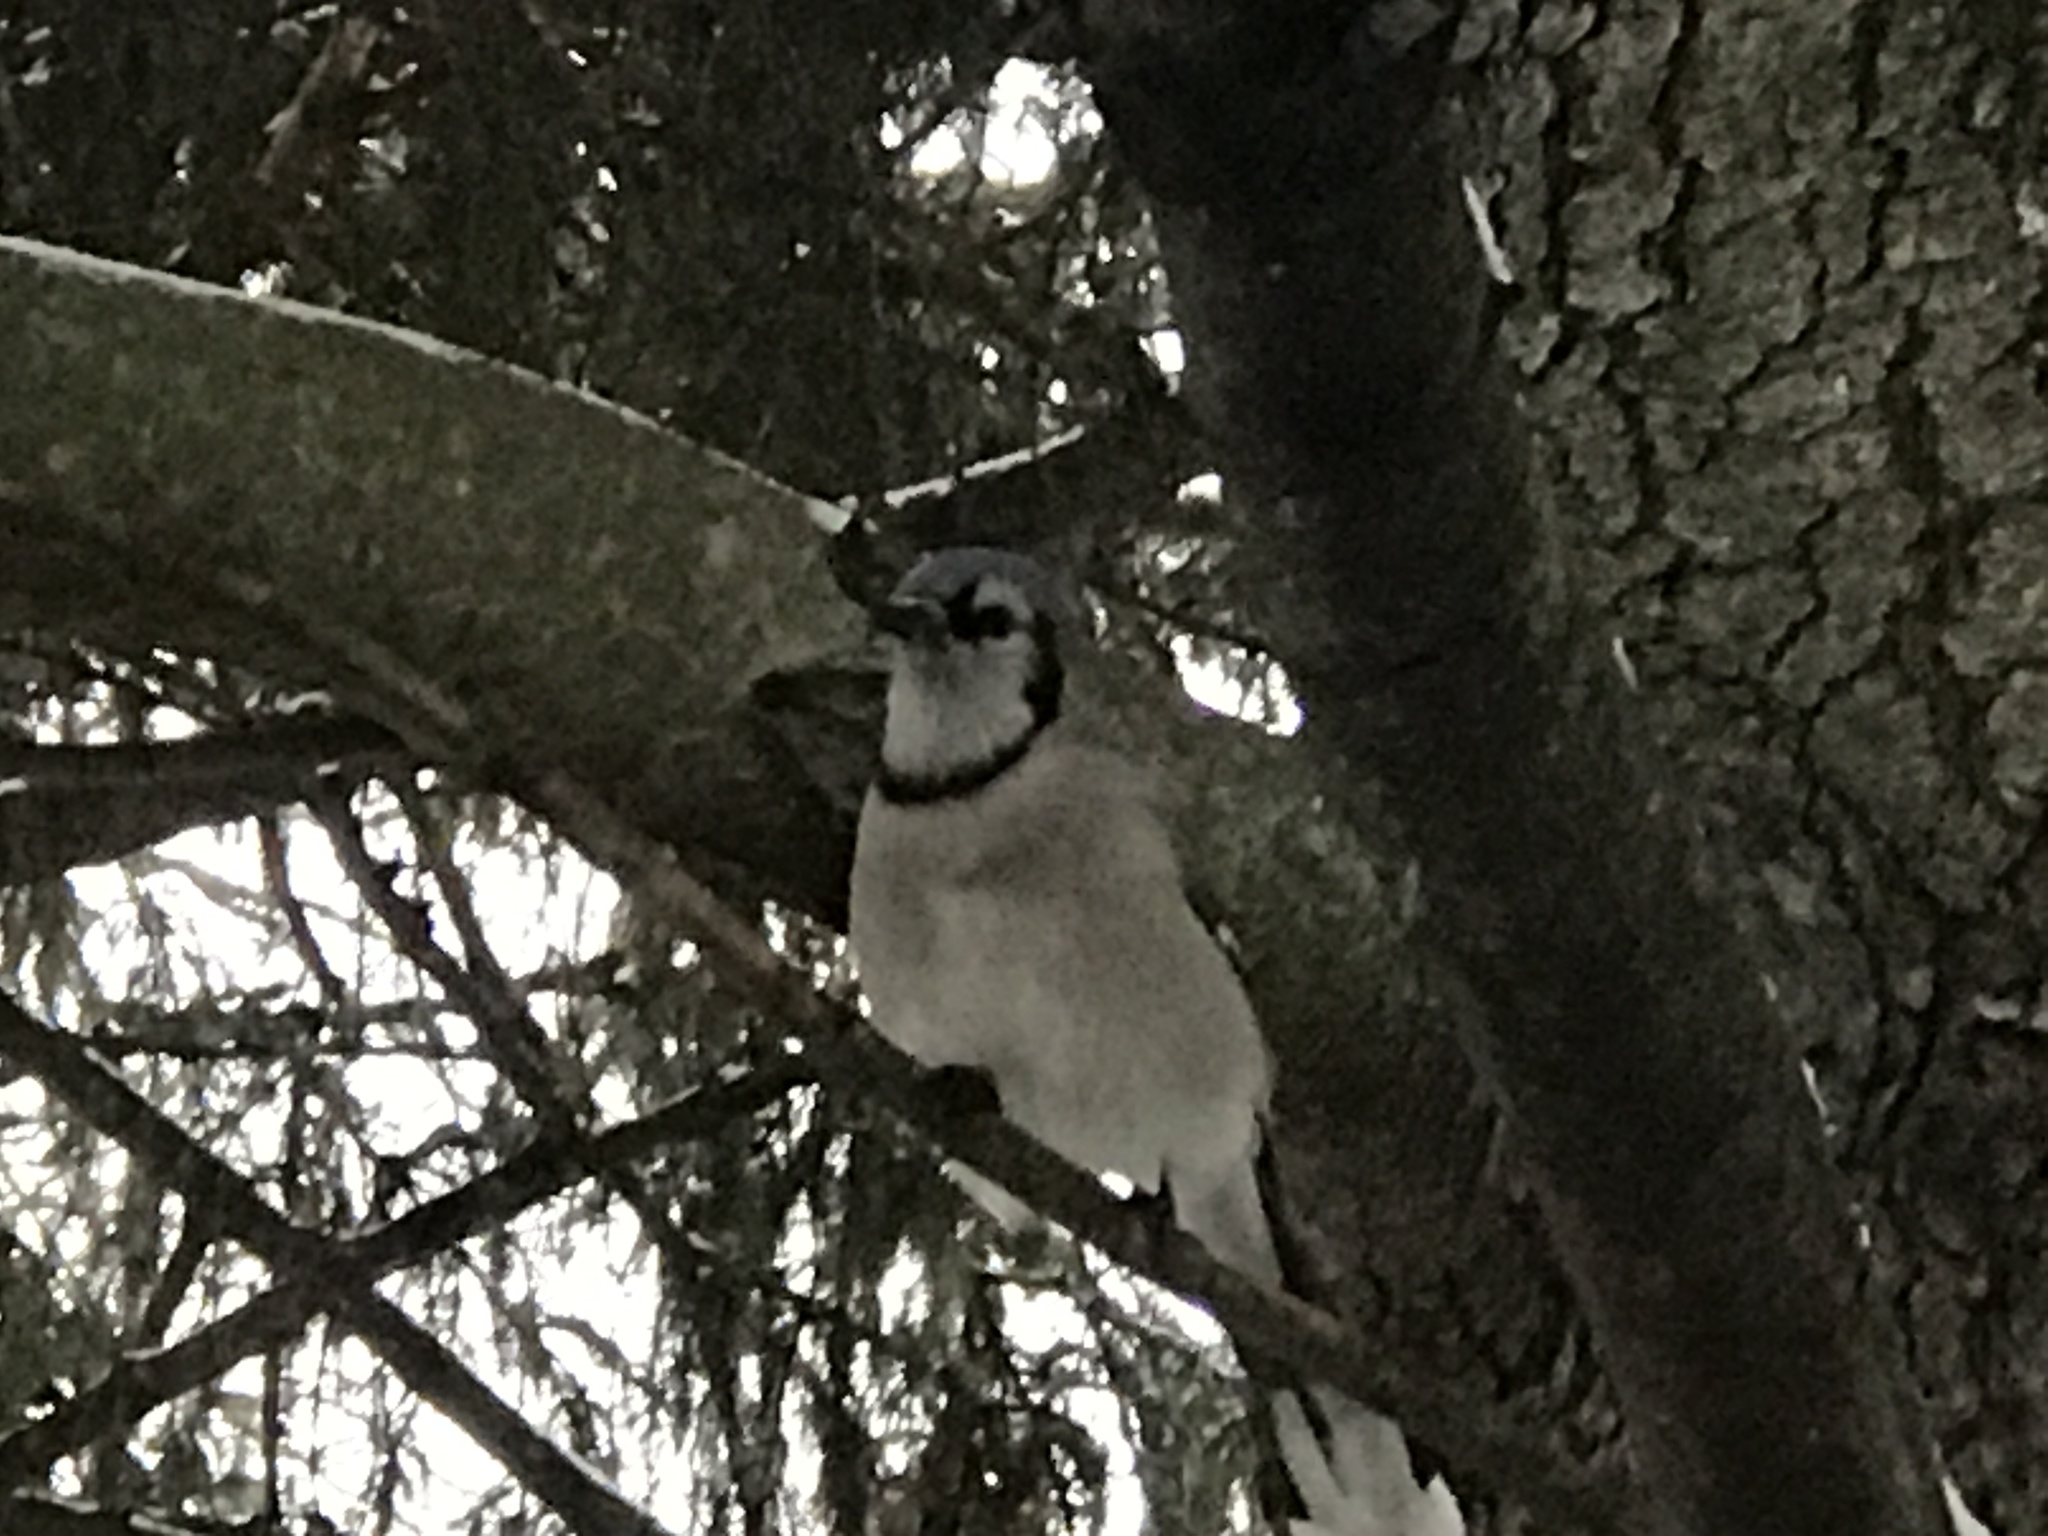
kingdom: Animalia
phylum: Chordata
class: Aves
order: Passeriformes
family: Corvidae
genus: Cyanocitta
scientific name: Cyanocitta cristata
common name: Blue jay
